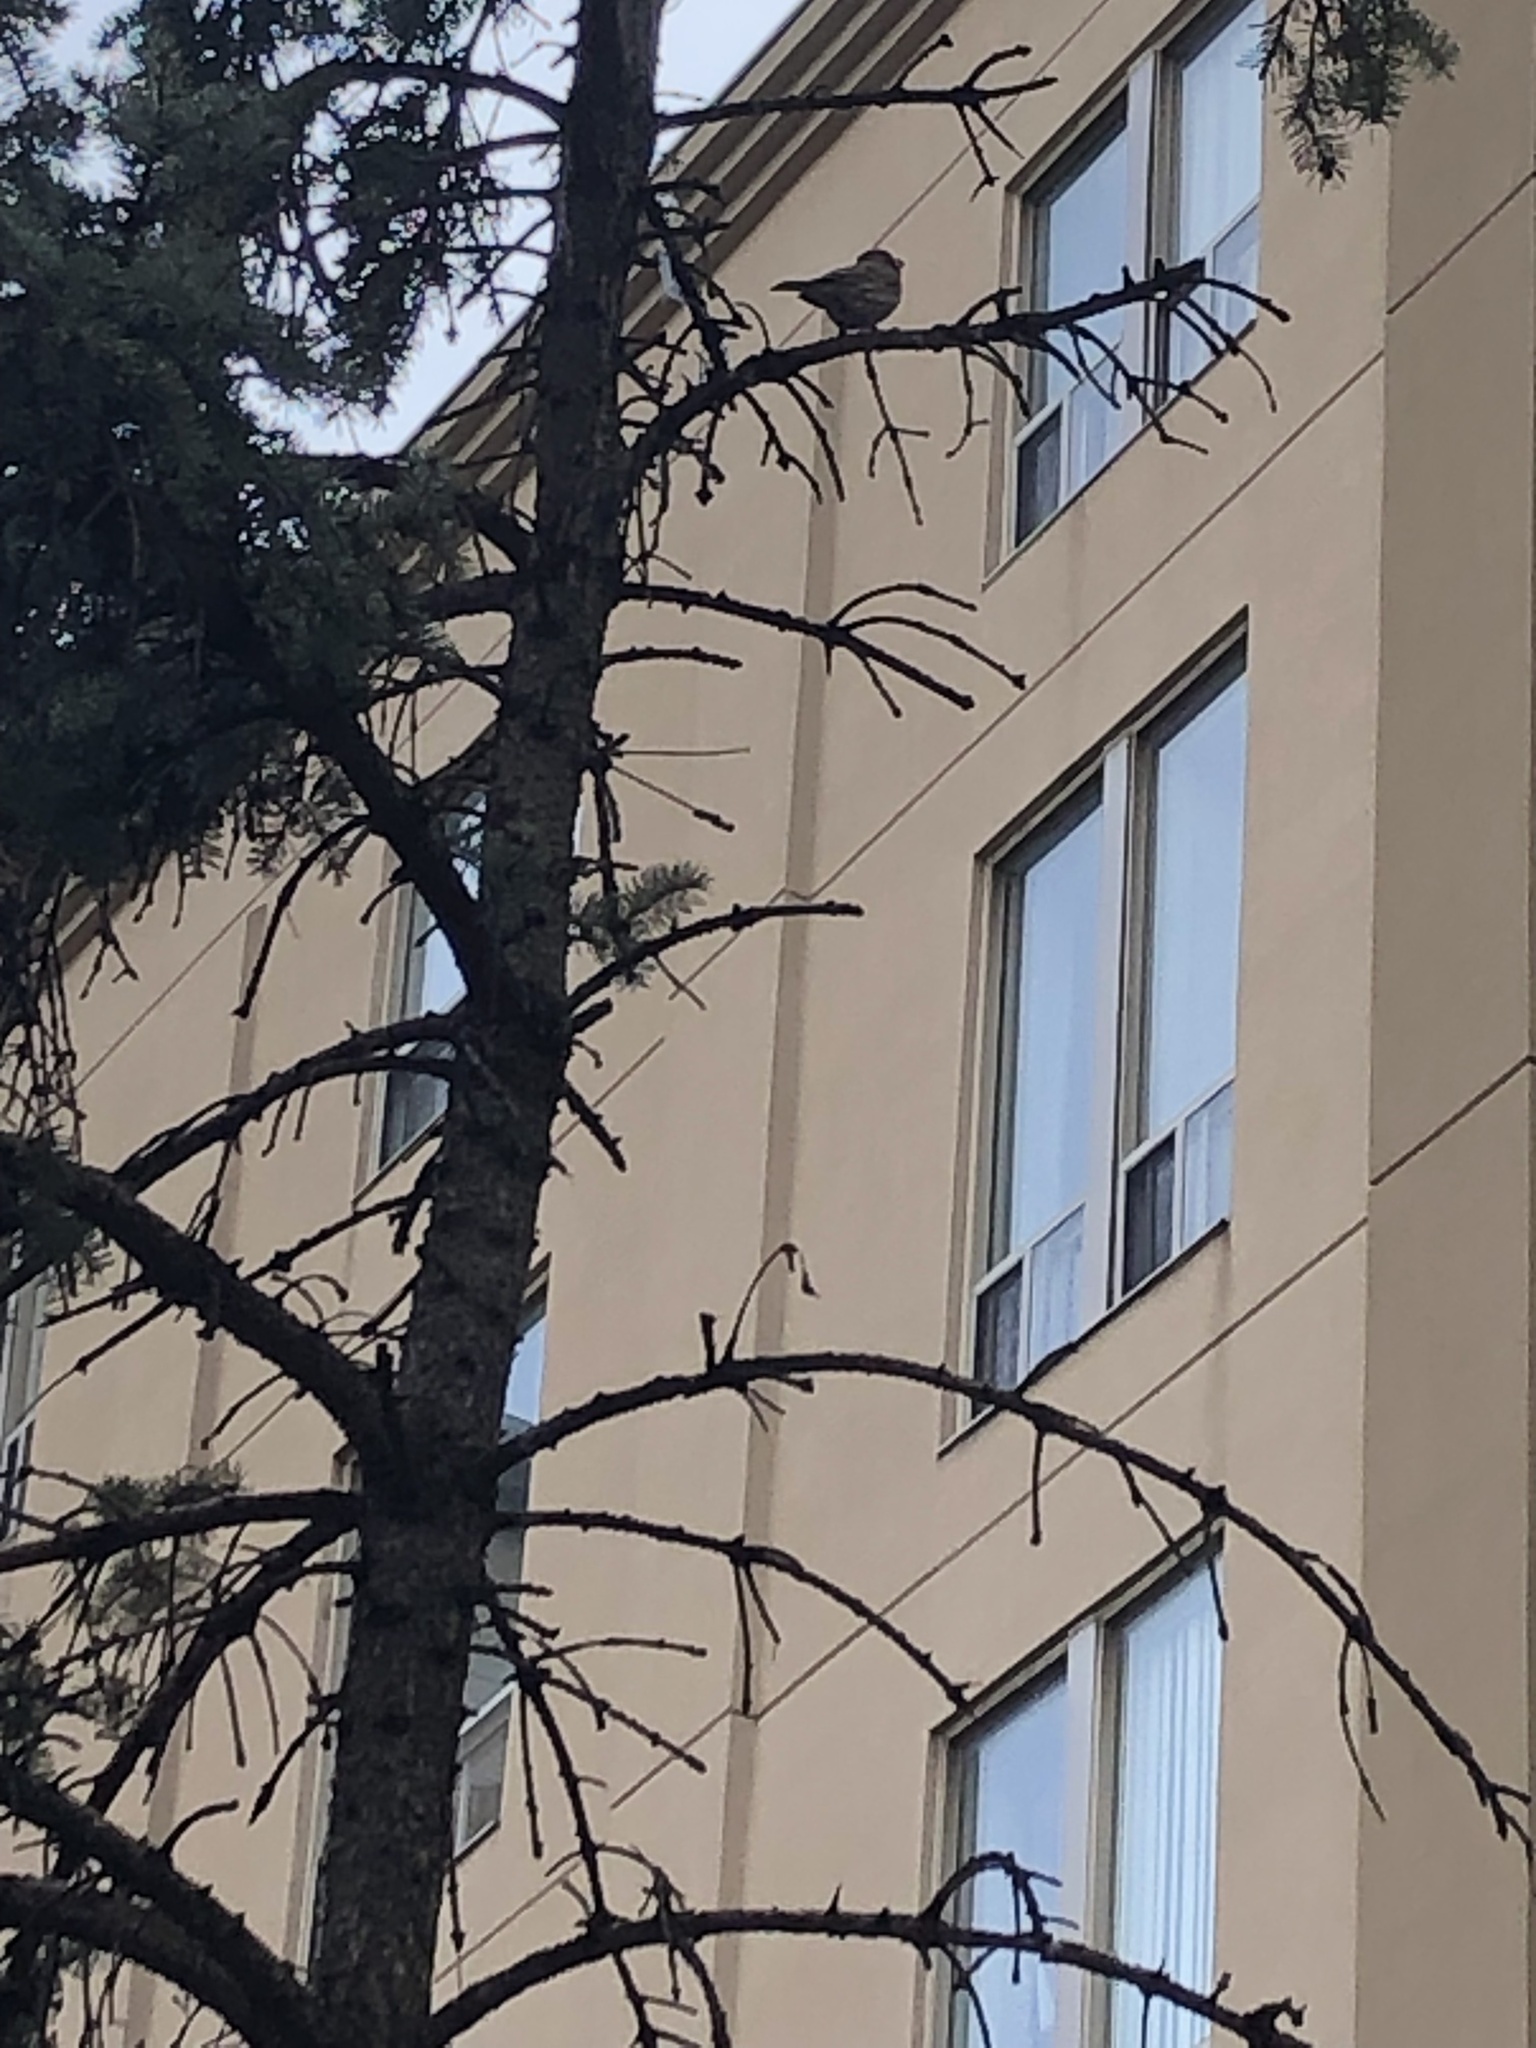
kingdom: Animalia
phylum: Chordata
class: Aves
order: Passeriformes
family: Fringillidae
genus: Haemorhous
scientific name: Haemorhous mexicanus
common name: House finch
